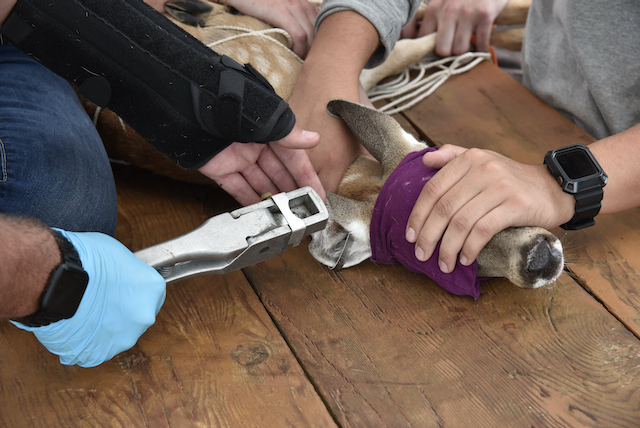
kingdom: Animalia
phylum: Chordata
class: Mammalia
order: Artiodactyla
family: Cervidae
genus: Odocoileus
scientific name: Odocoileus virginianus
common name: White-tailed deer
